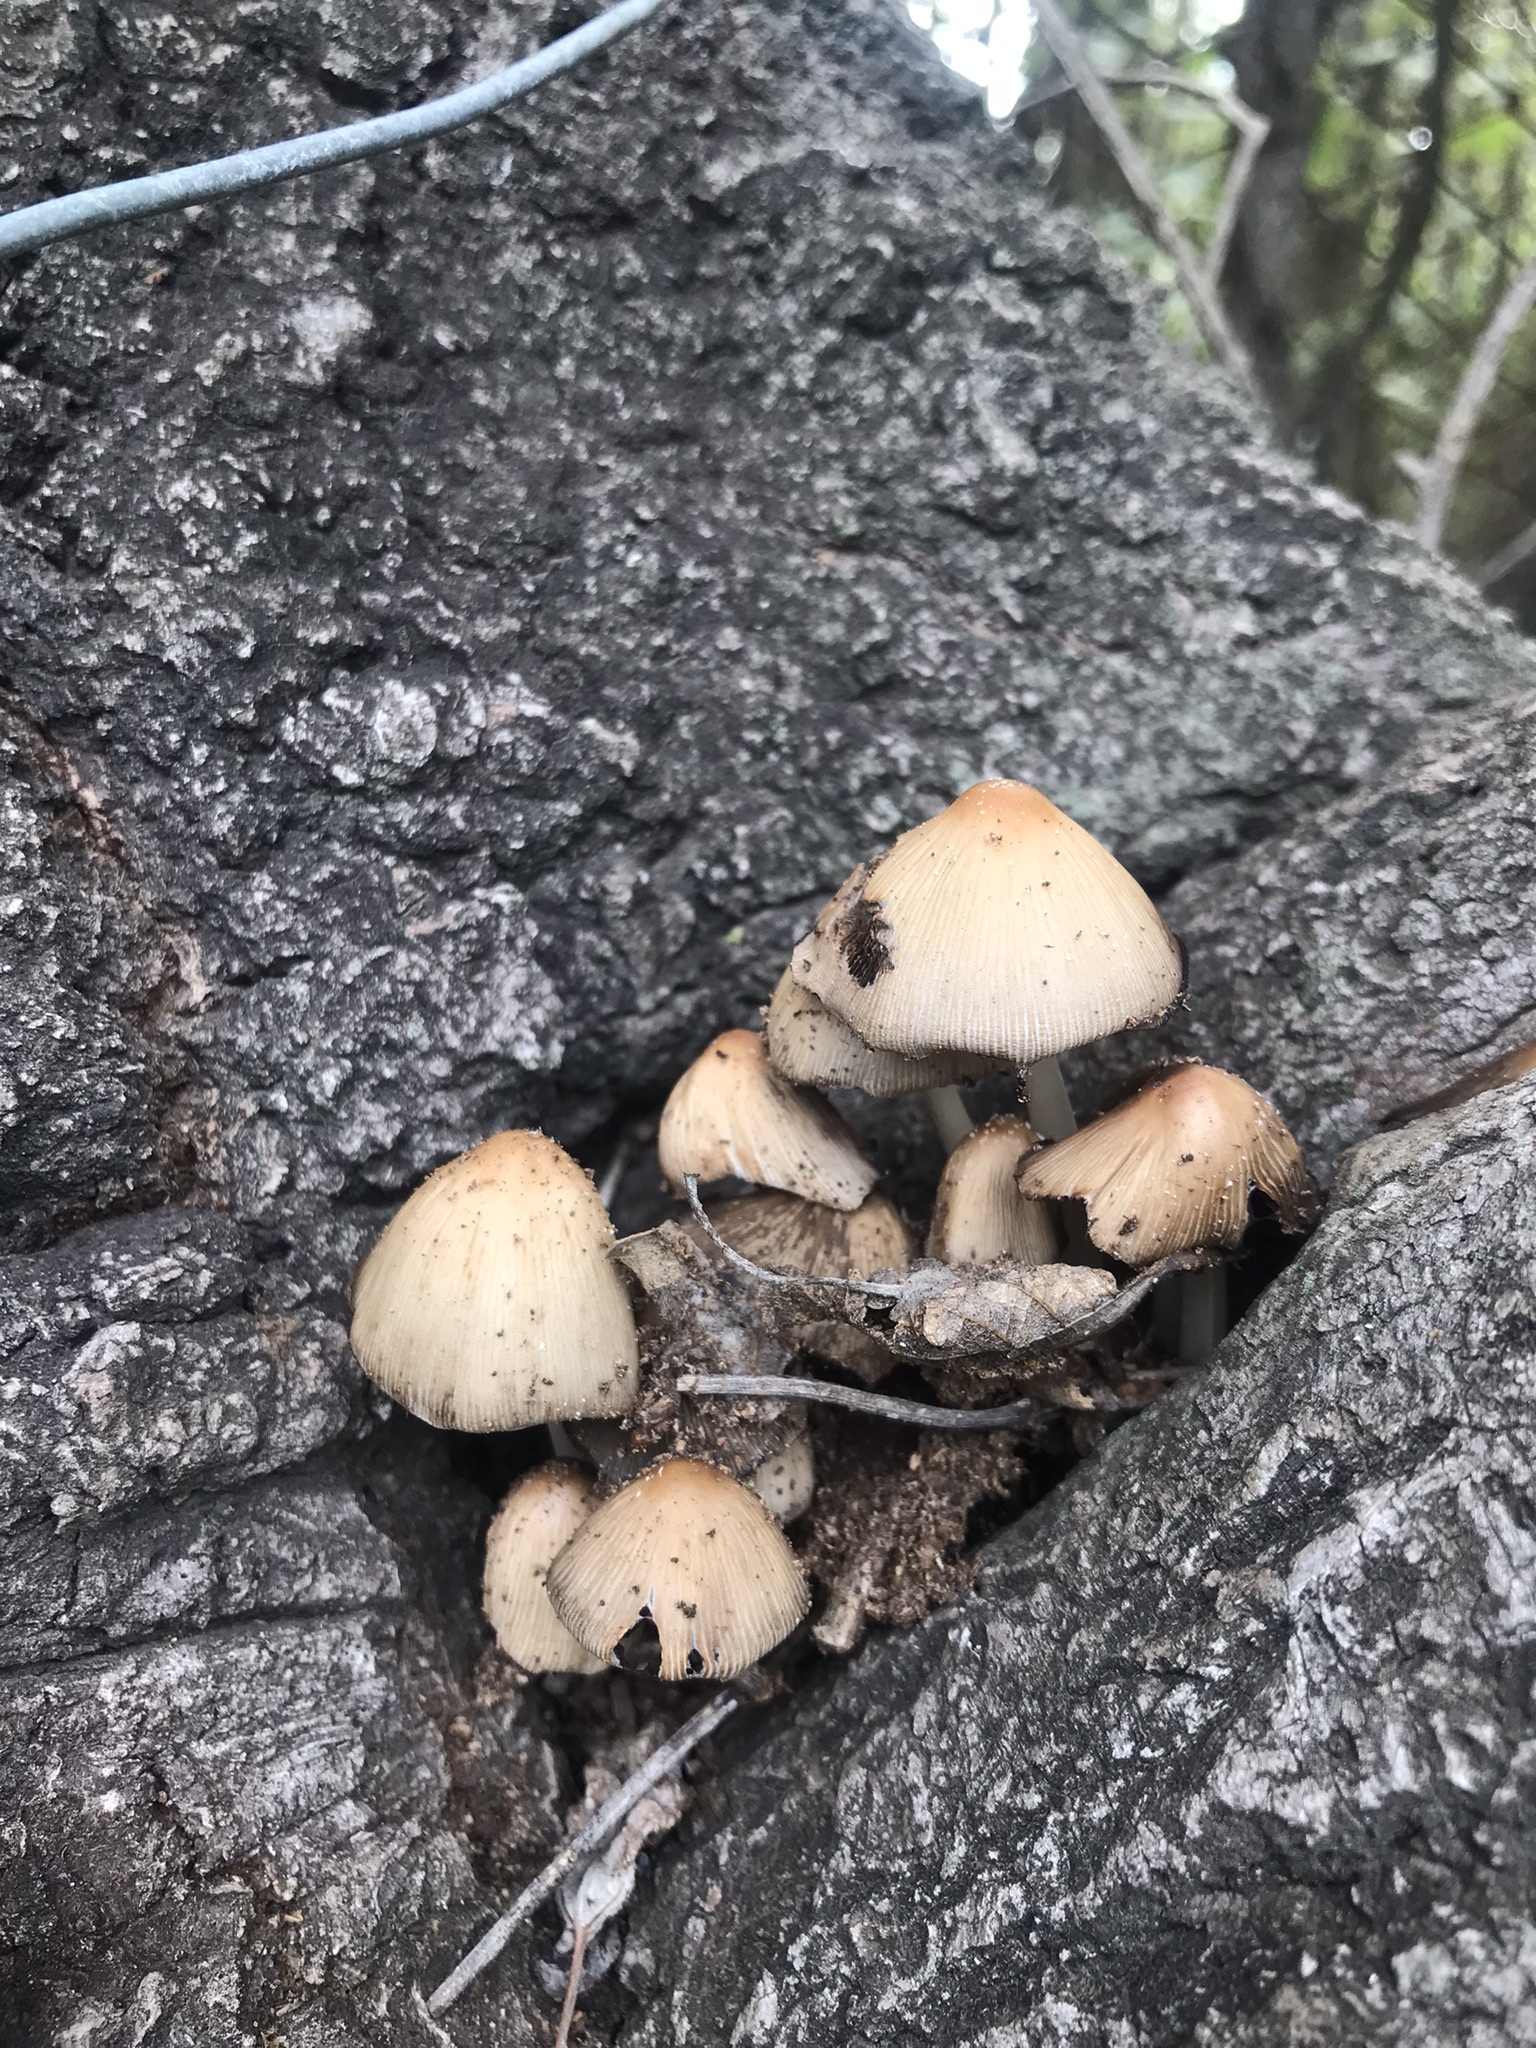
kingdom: Fungi
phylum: Basidiomycota
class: Agaricomycetes
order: Agaricales
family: Psathyrellaceae
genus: Coprinellus
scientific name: Coprinellus micaceus
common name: Glistening ink-cap
